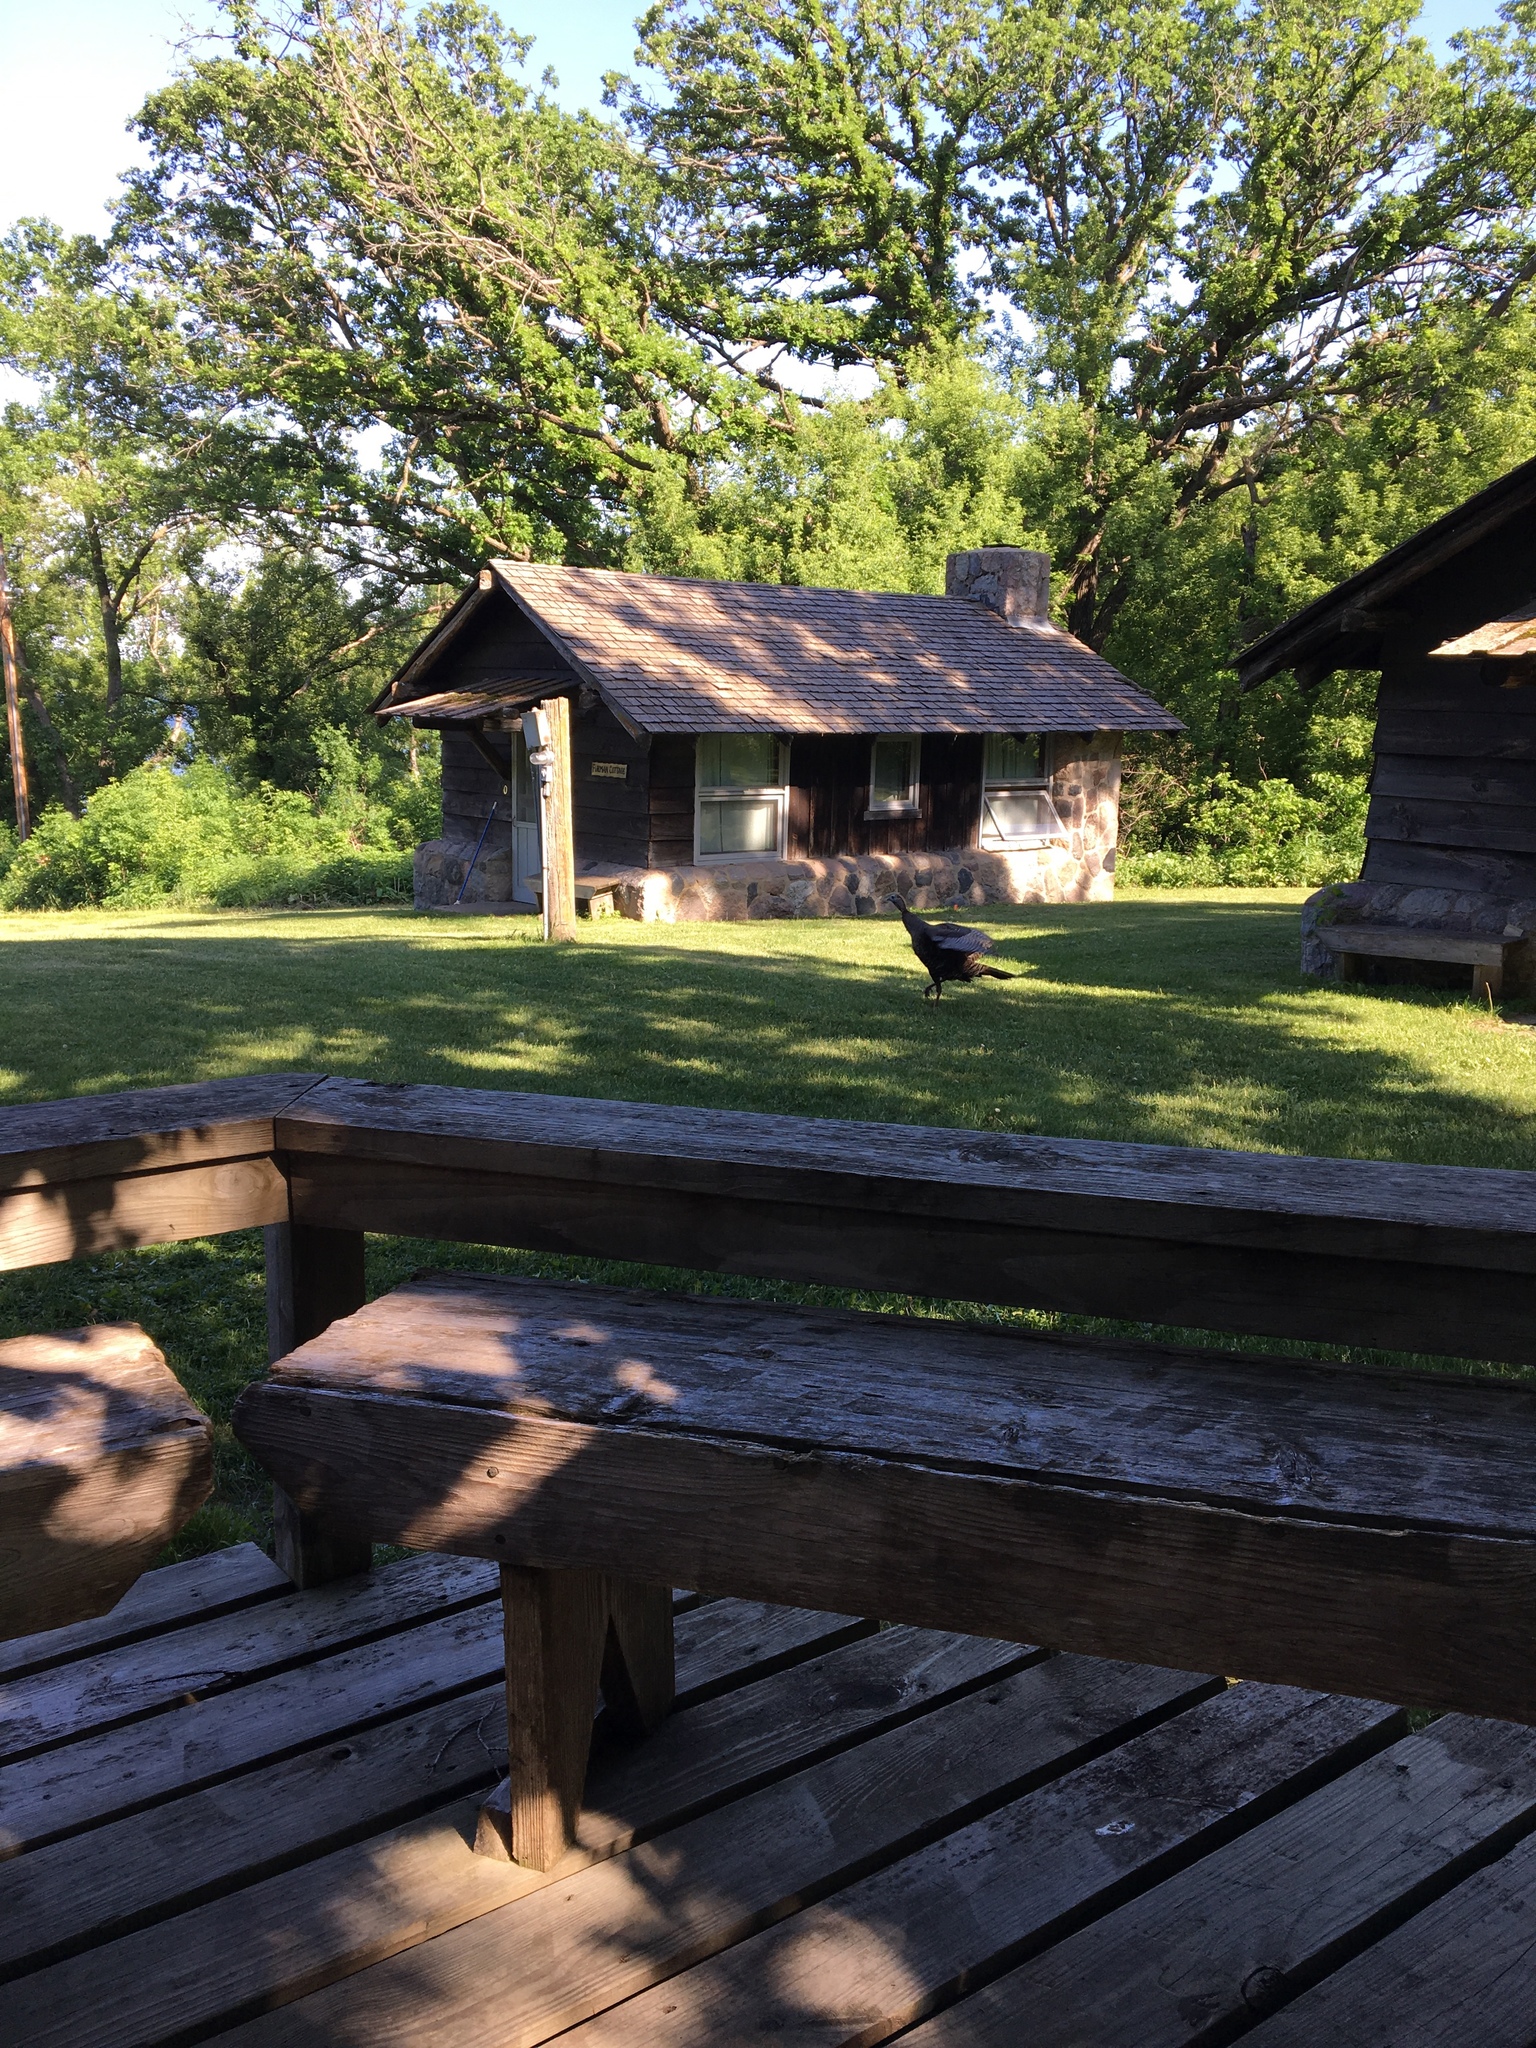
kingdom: Animalia
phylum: Chordata
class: Aves
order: Galliformes
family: Phasianidae
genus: Meleagris
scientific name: Meleagris gallopavo
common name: Wild turkey
